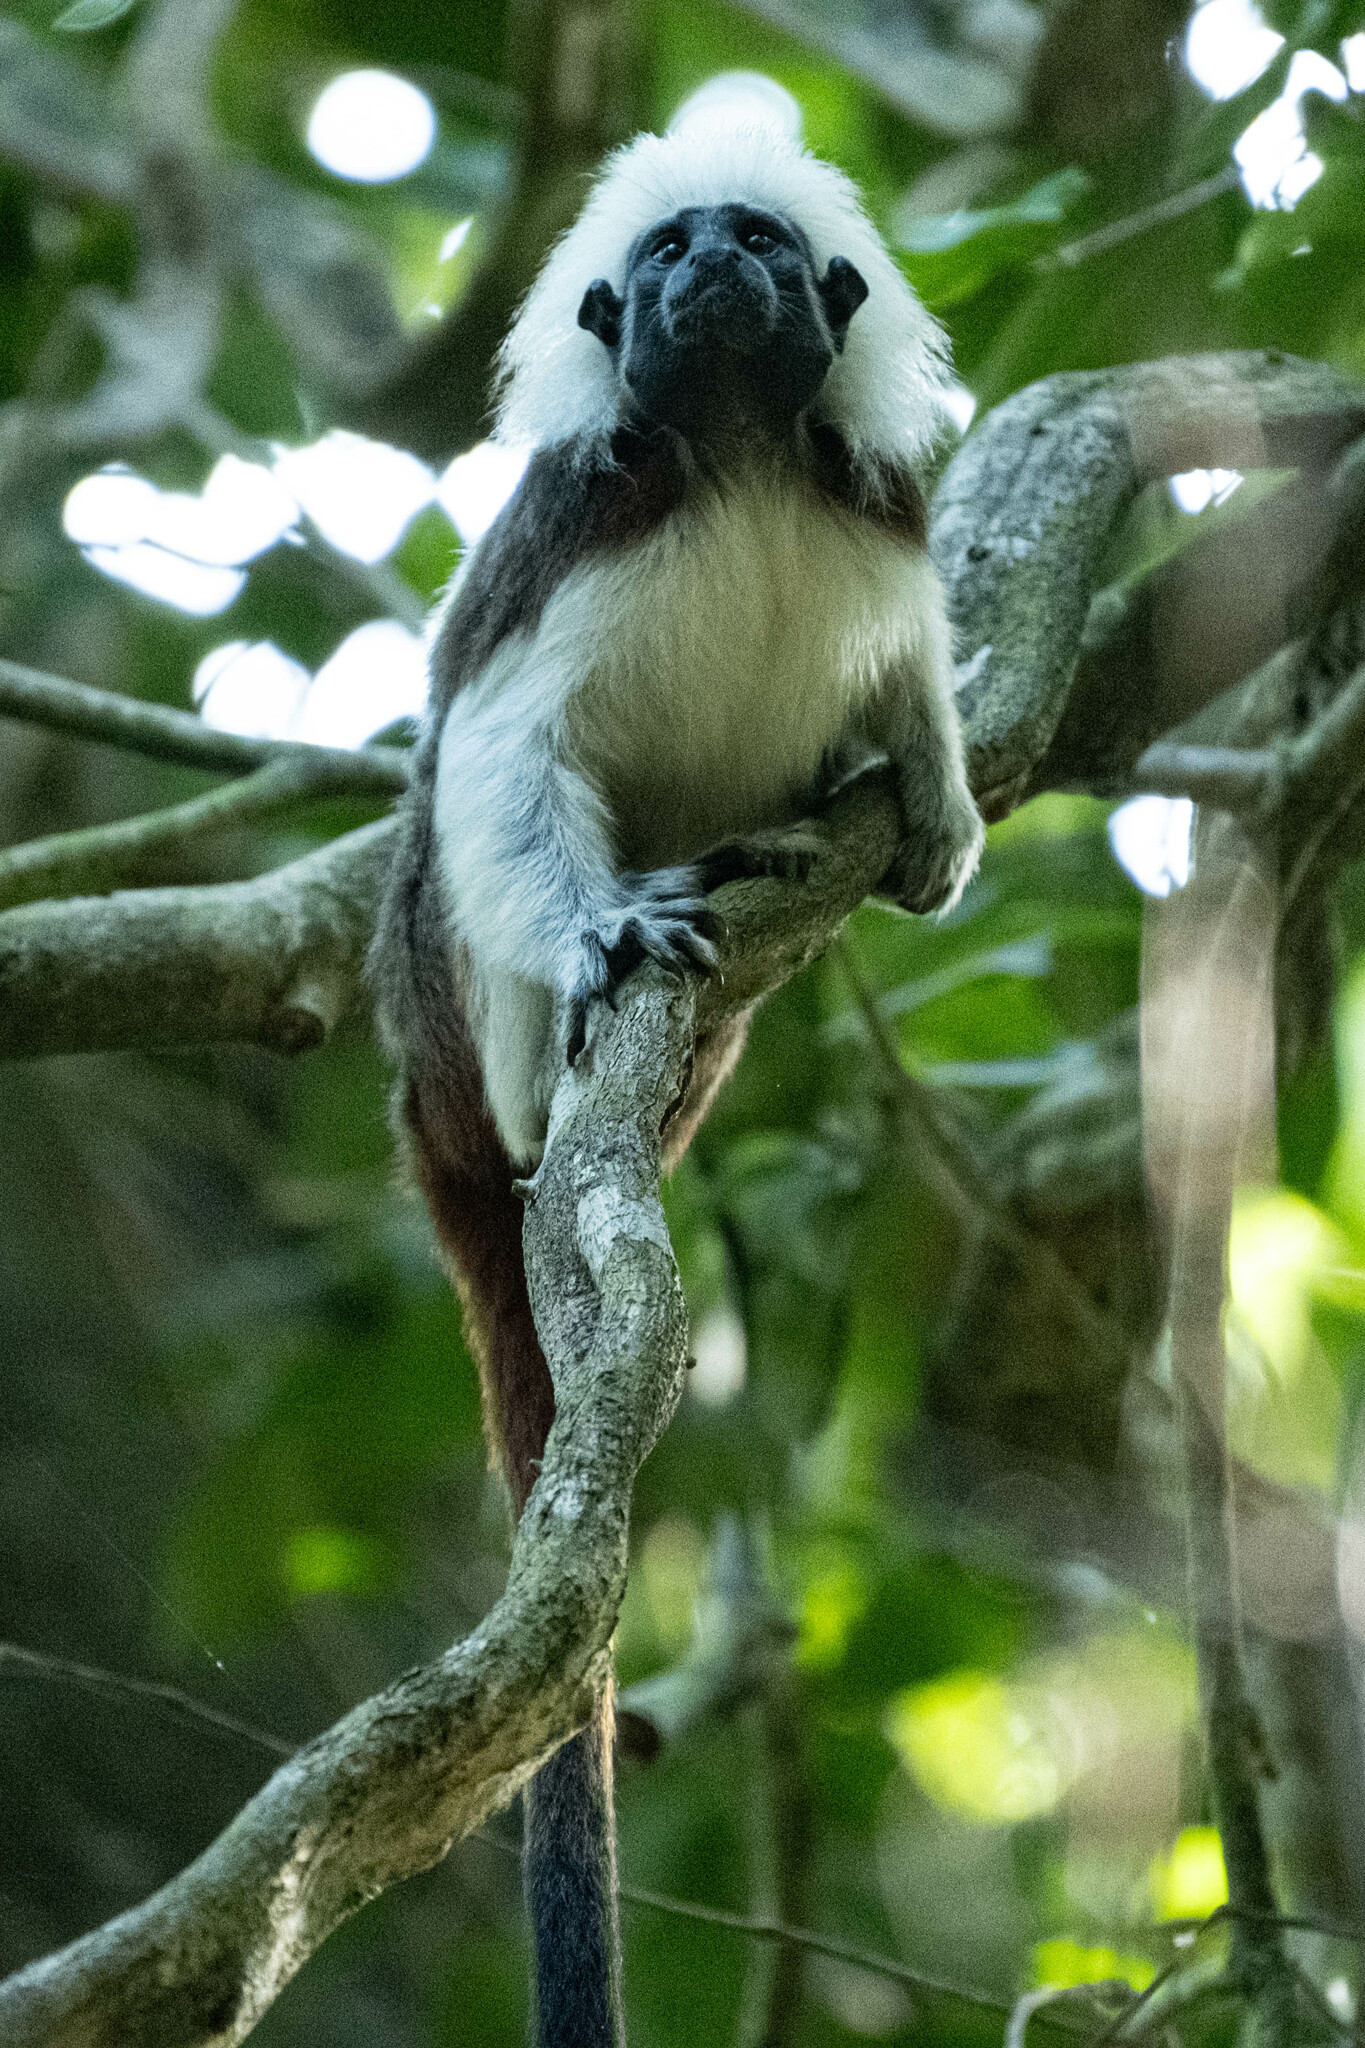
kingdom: Animalia
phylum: Chordata
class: Mammalia
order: Primates
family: Callitrichidae
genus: Saguinus
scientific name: Saguinus oedipus
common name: Cottontop tamarin
